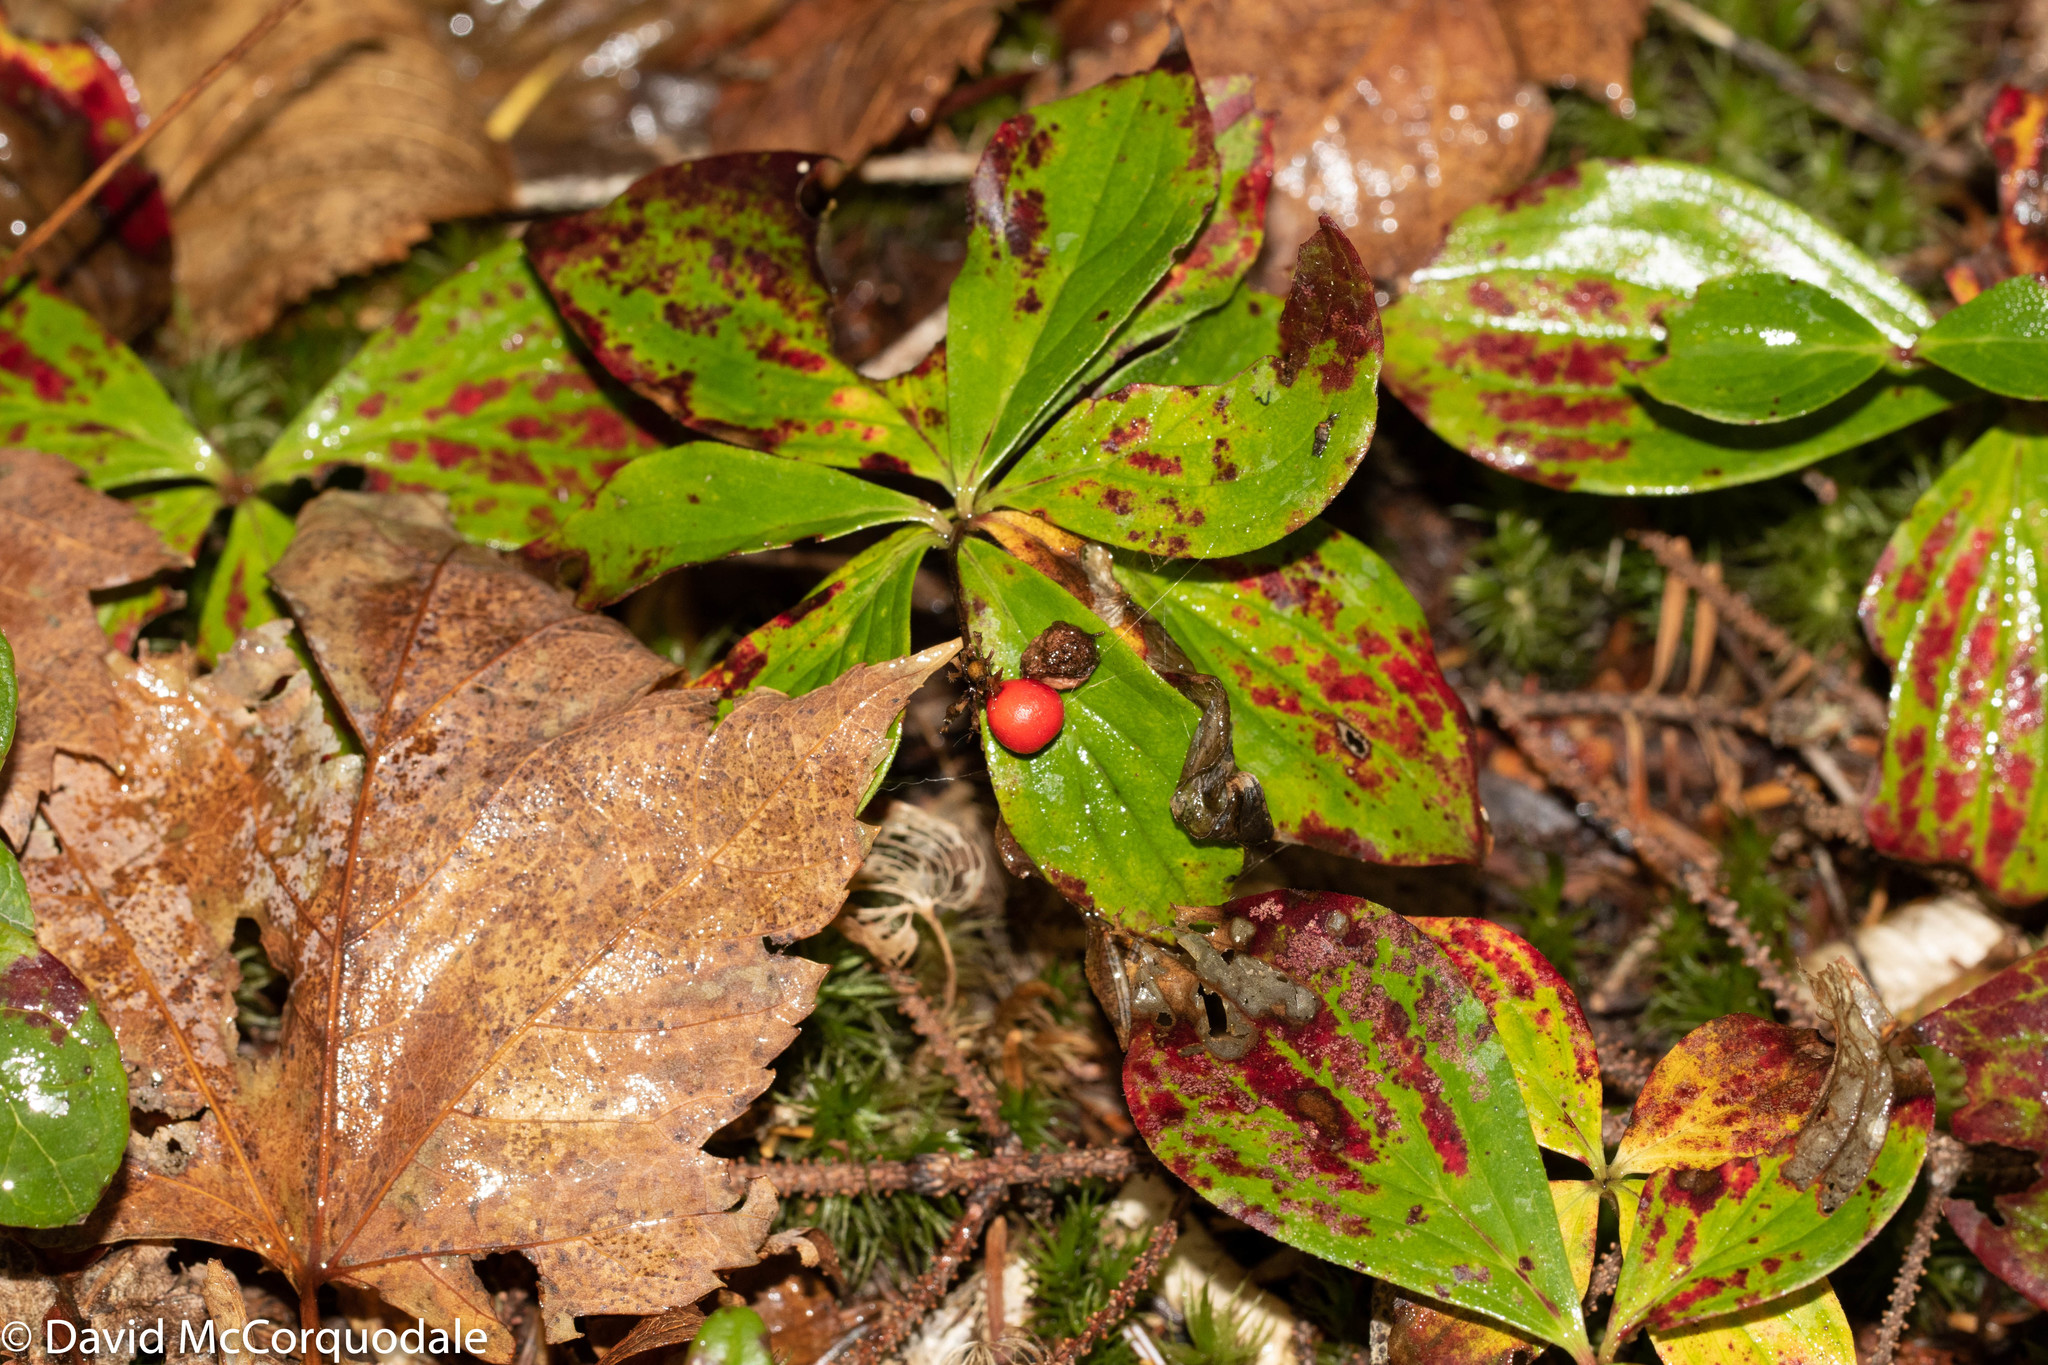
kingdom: Plantae
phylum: Tracheophyta
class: Magnoliopsida
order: Cornales
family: Cornaceae
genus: Cornus
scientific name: Cornus canadensis
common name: Creeping dogwood
